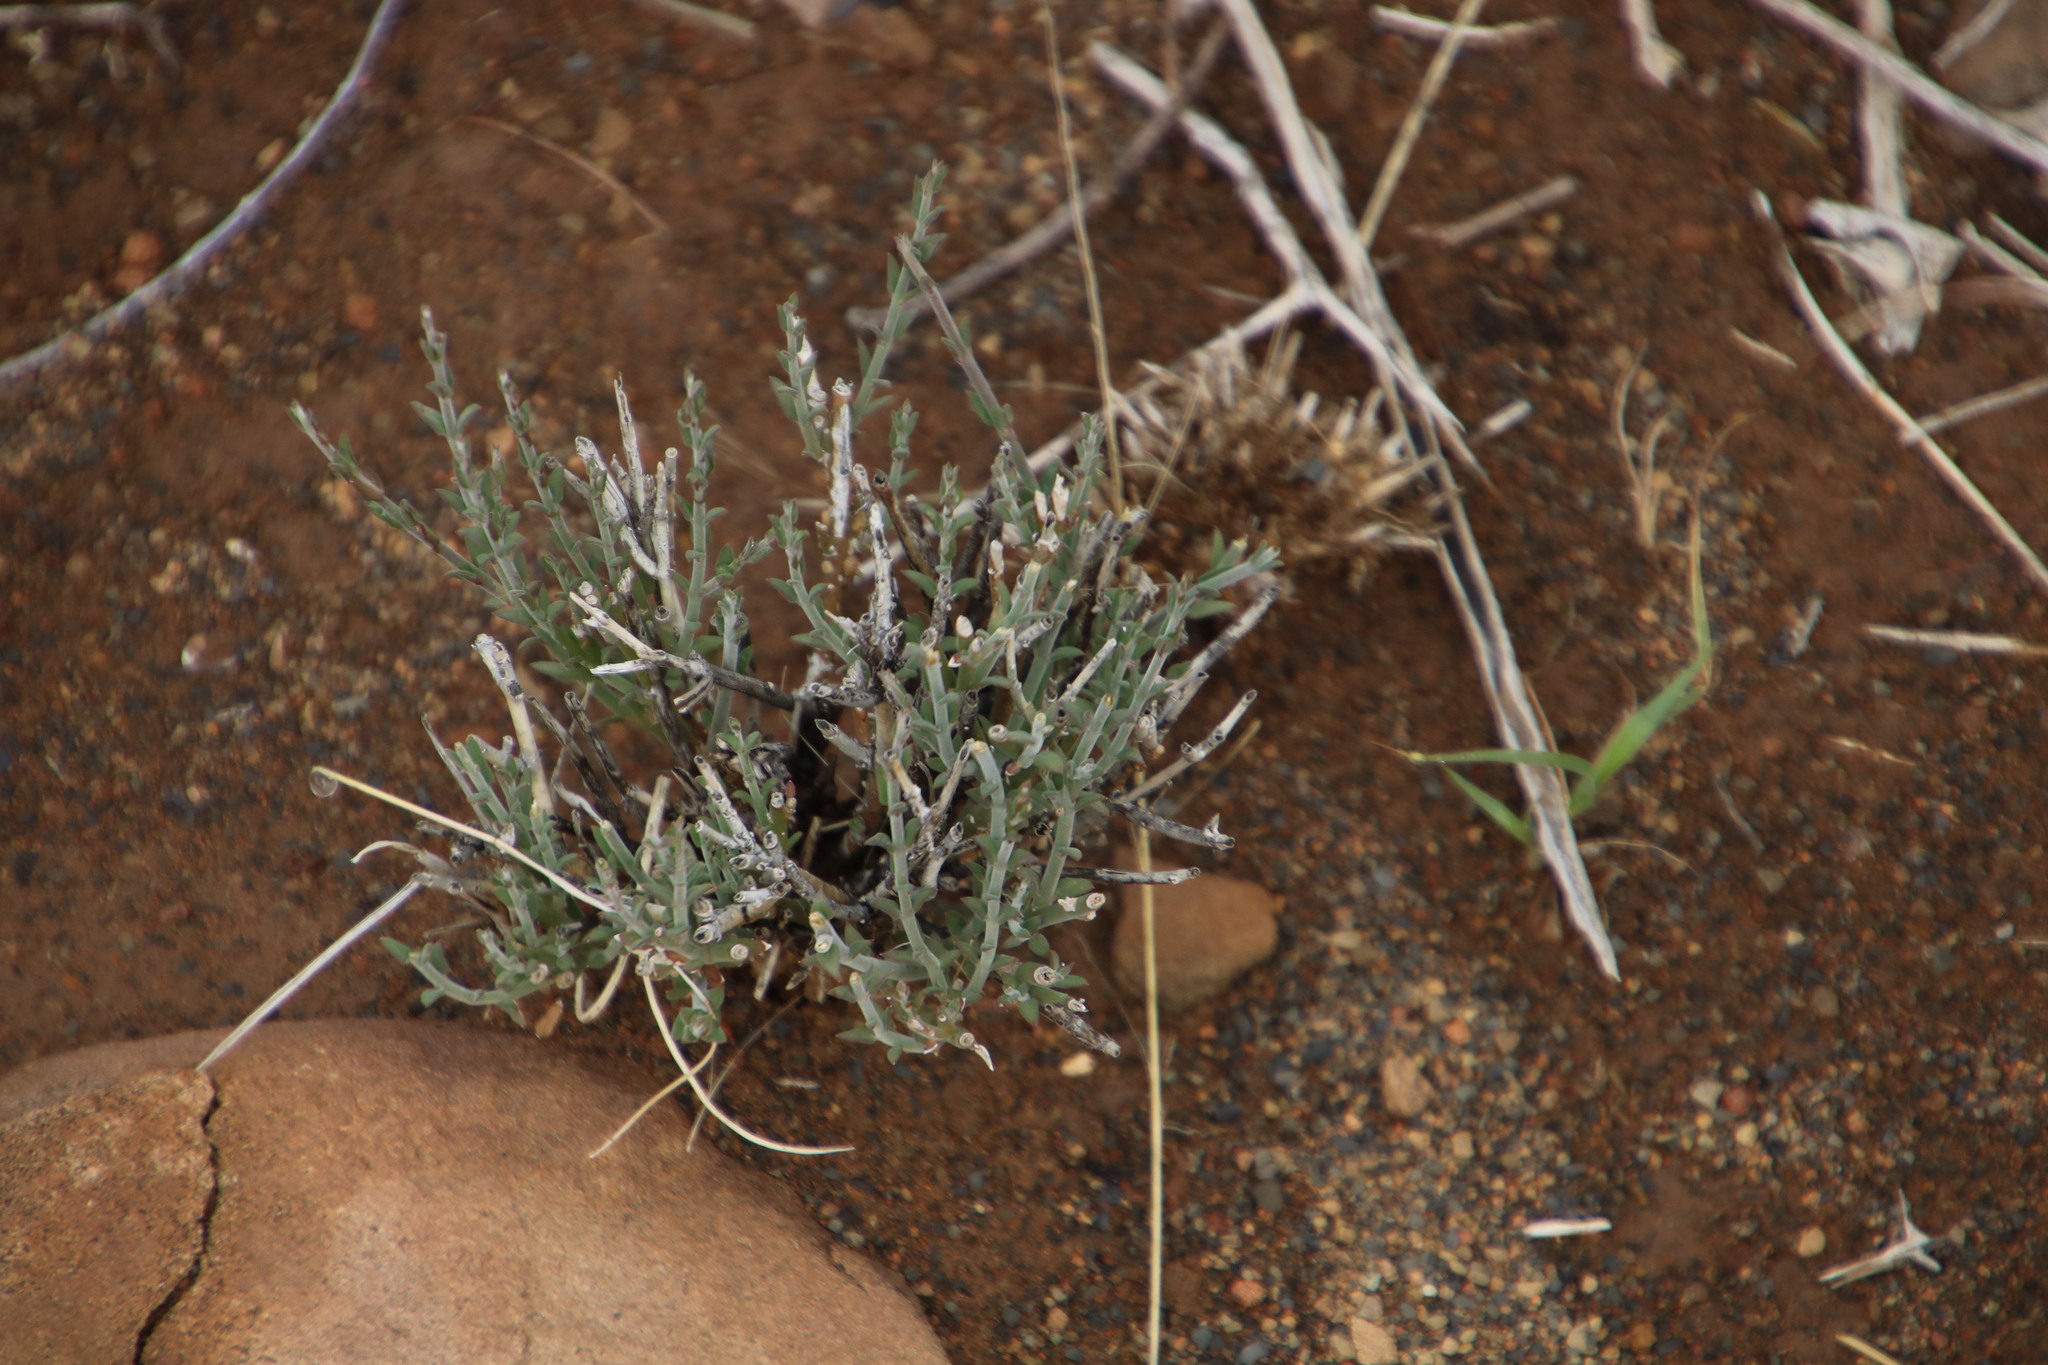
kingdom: Plantae
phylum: Tracheophyta
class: Magnoliopsida
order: Gentianales
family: Apocynaceae
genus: Microloma
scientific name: Microloma armatum
